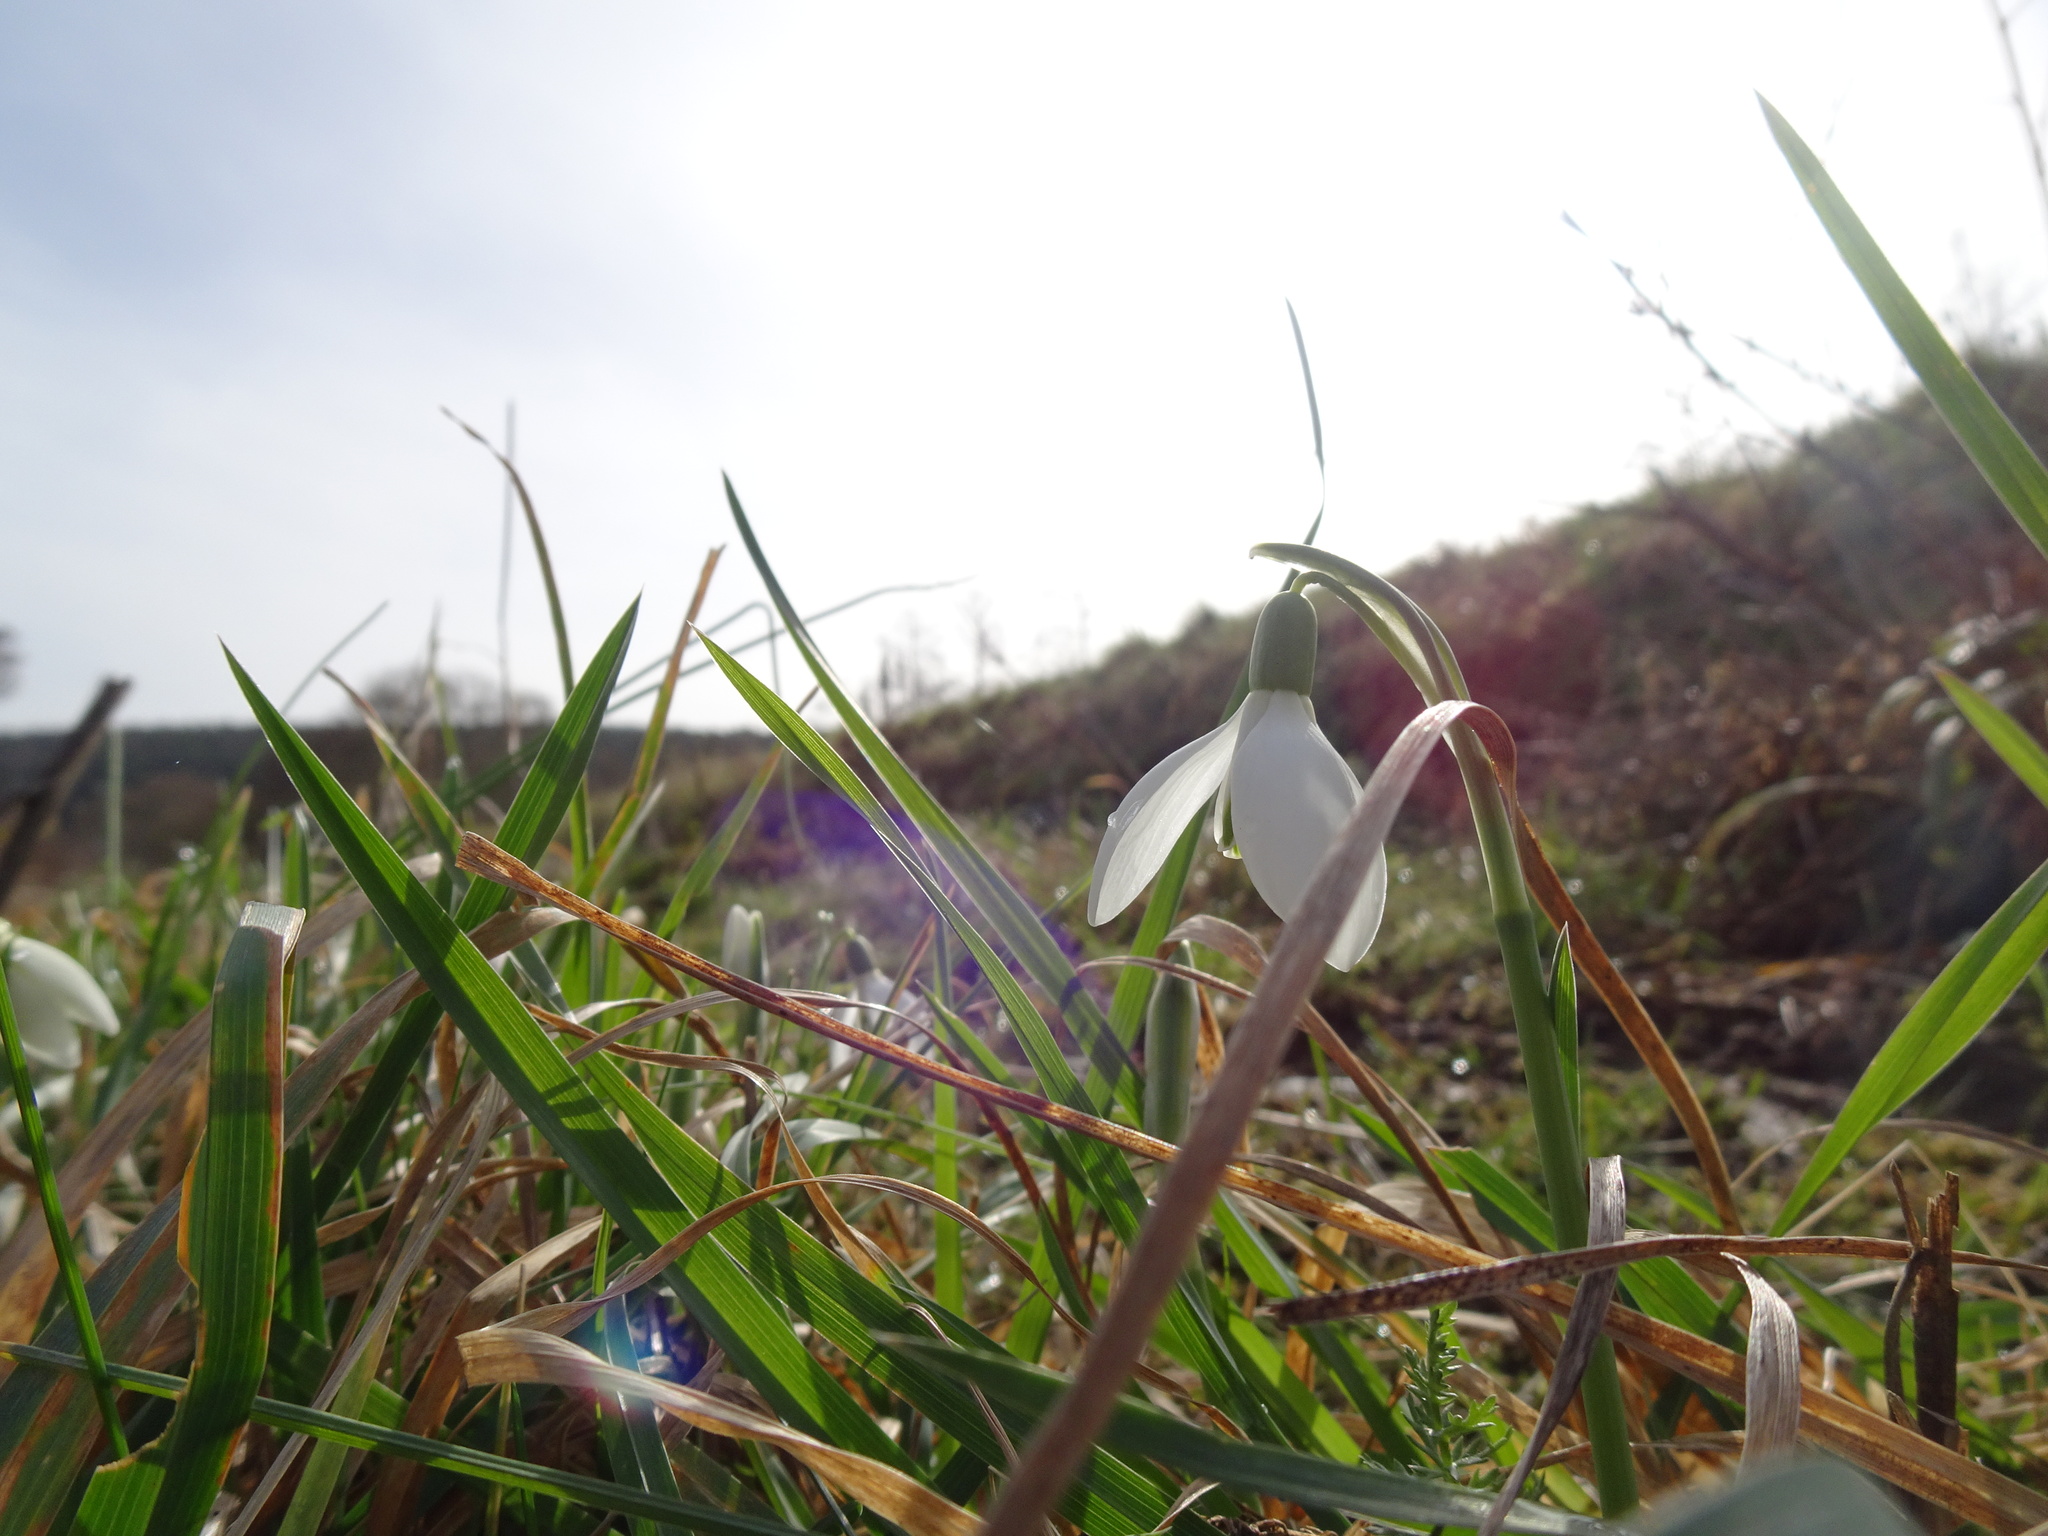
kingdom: Plantae
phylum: Tracheophyta
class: Liliopsida
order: Asparagales
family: Amaryllidaceae
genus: Galanthus
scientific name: Galanthus nivalis
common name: Snowdrop
